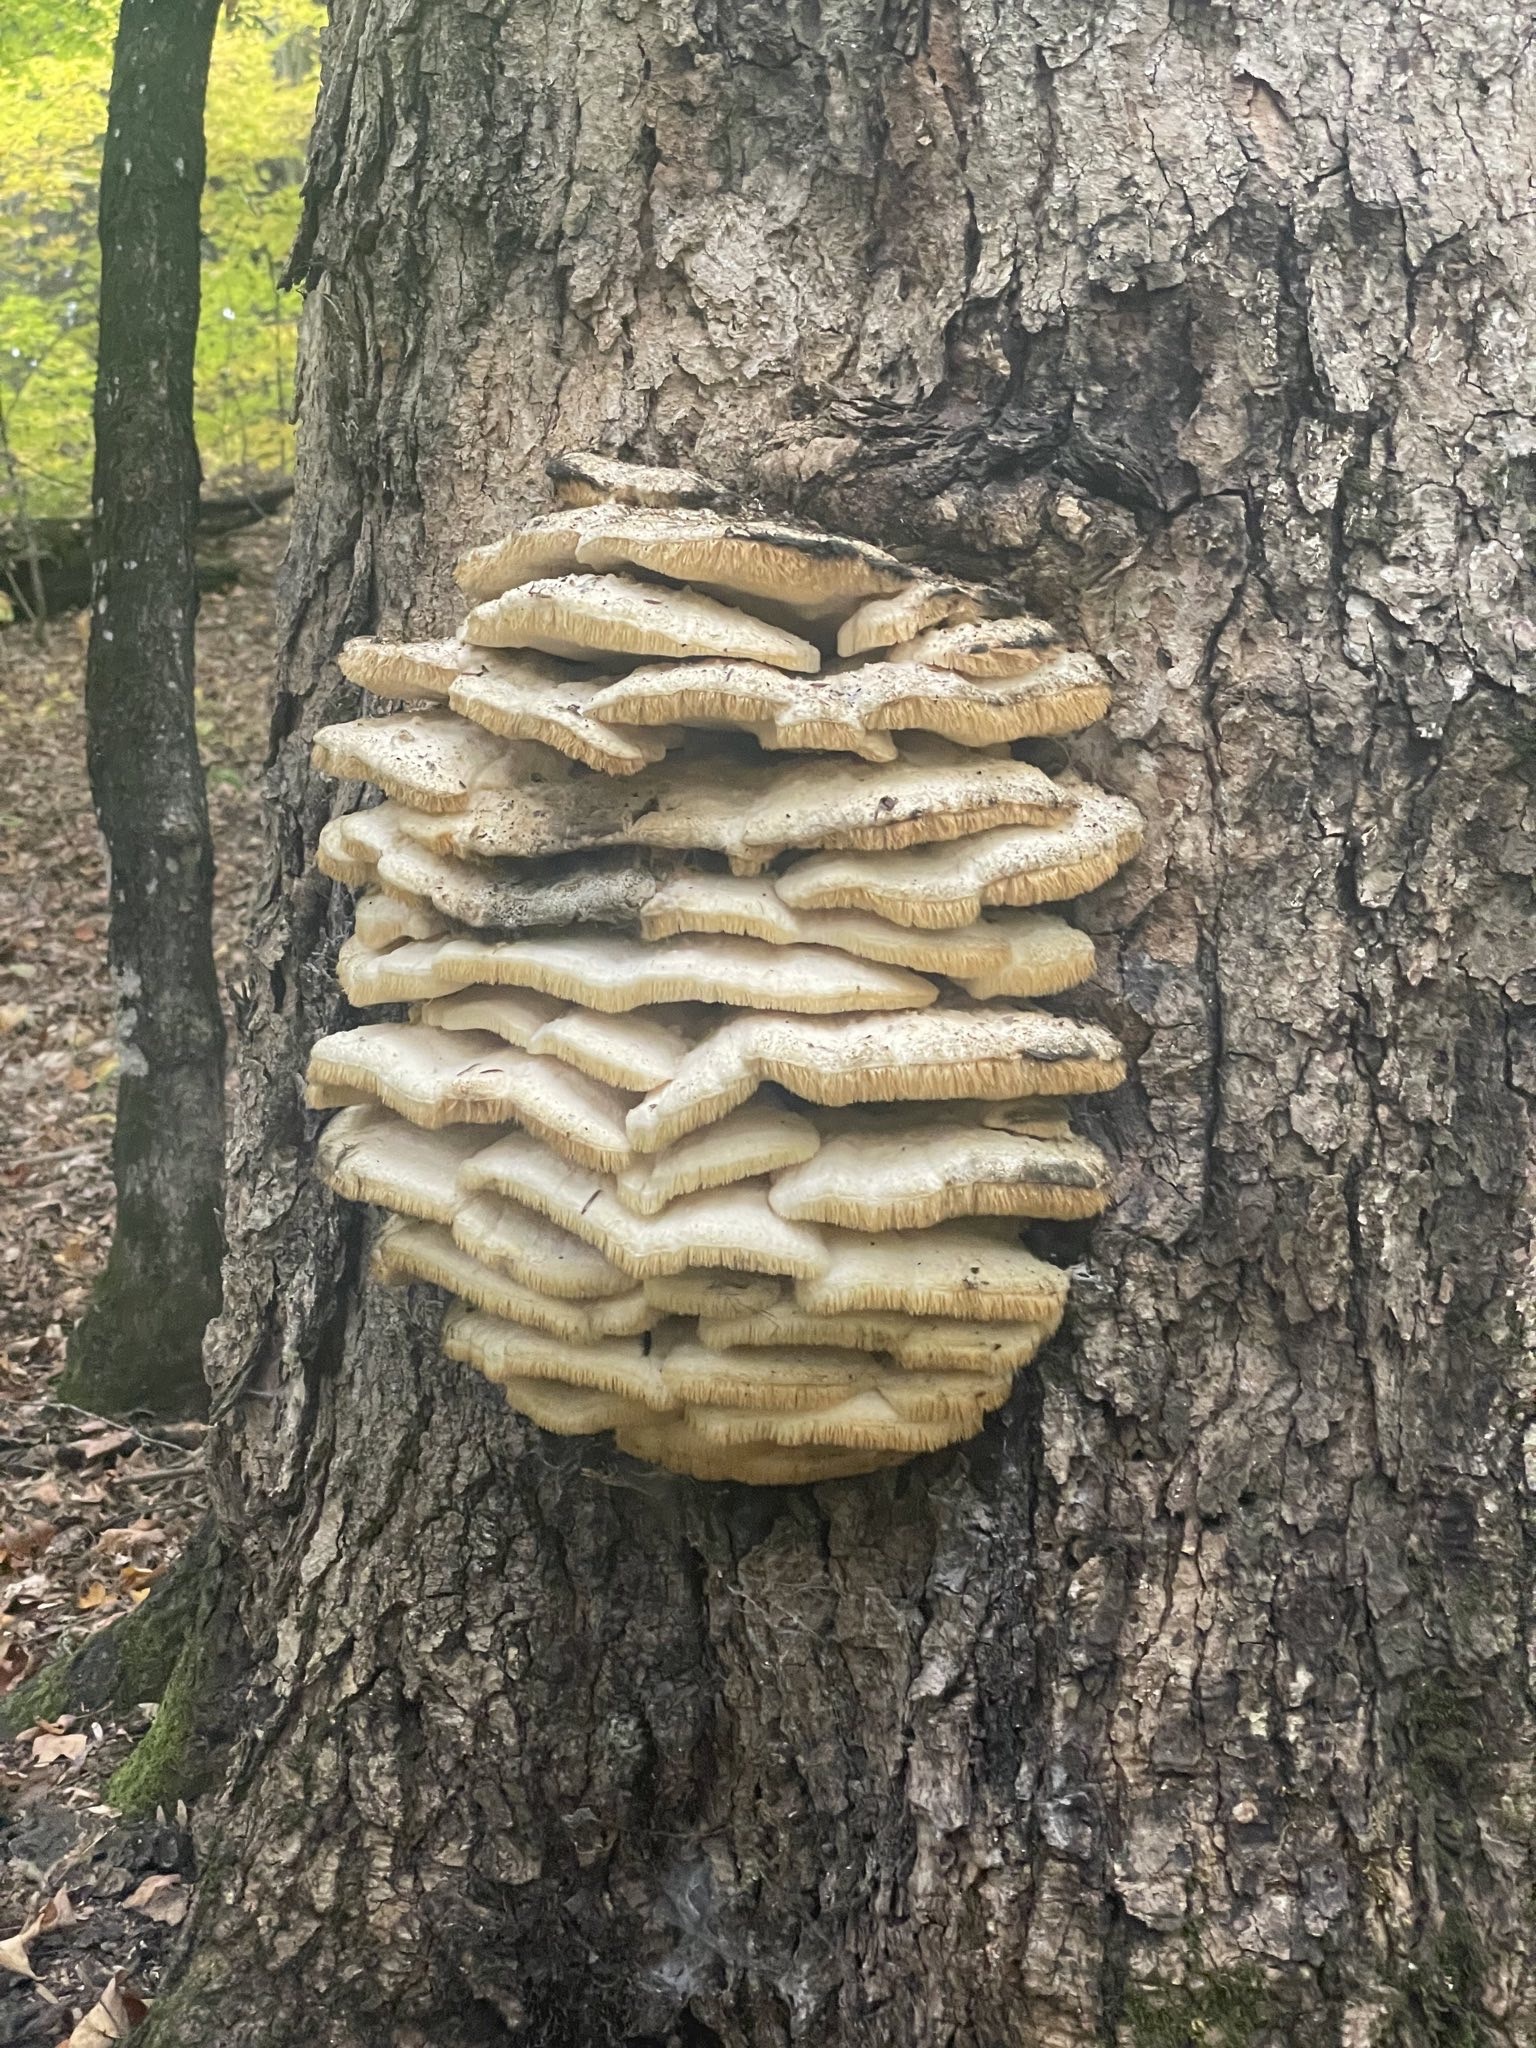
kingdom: Fungi
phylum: Basidiomycota
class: Agaricomycetes
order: Polyporales
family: Meruliaceae
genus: Climacodon
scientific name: Climacodon septentrionalis
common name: Northern tooth
